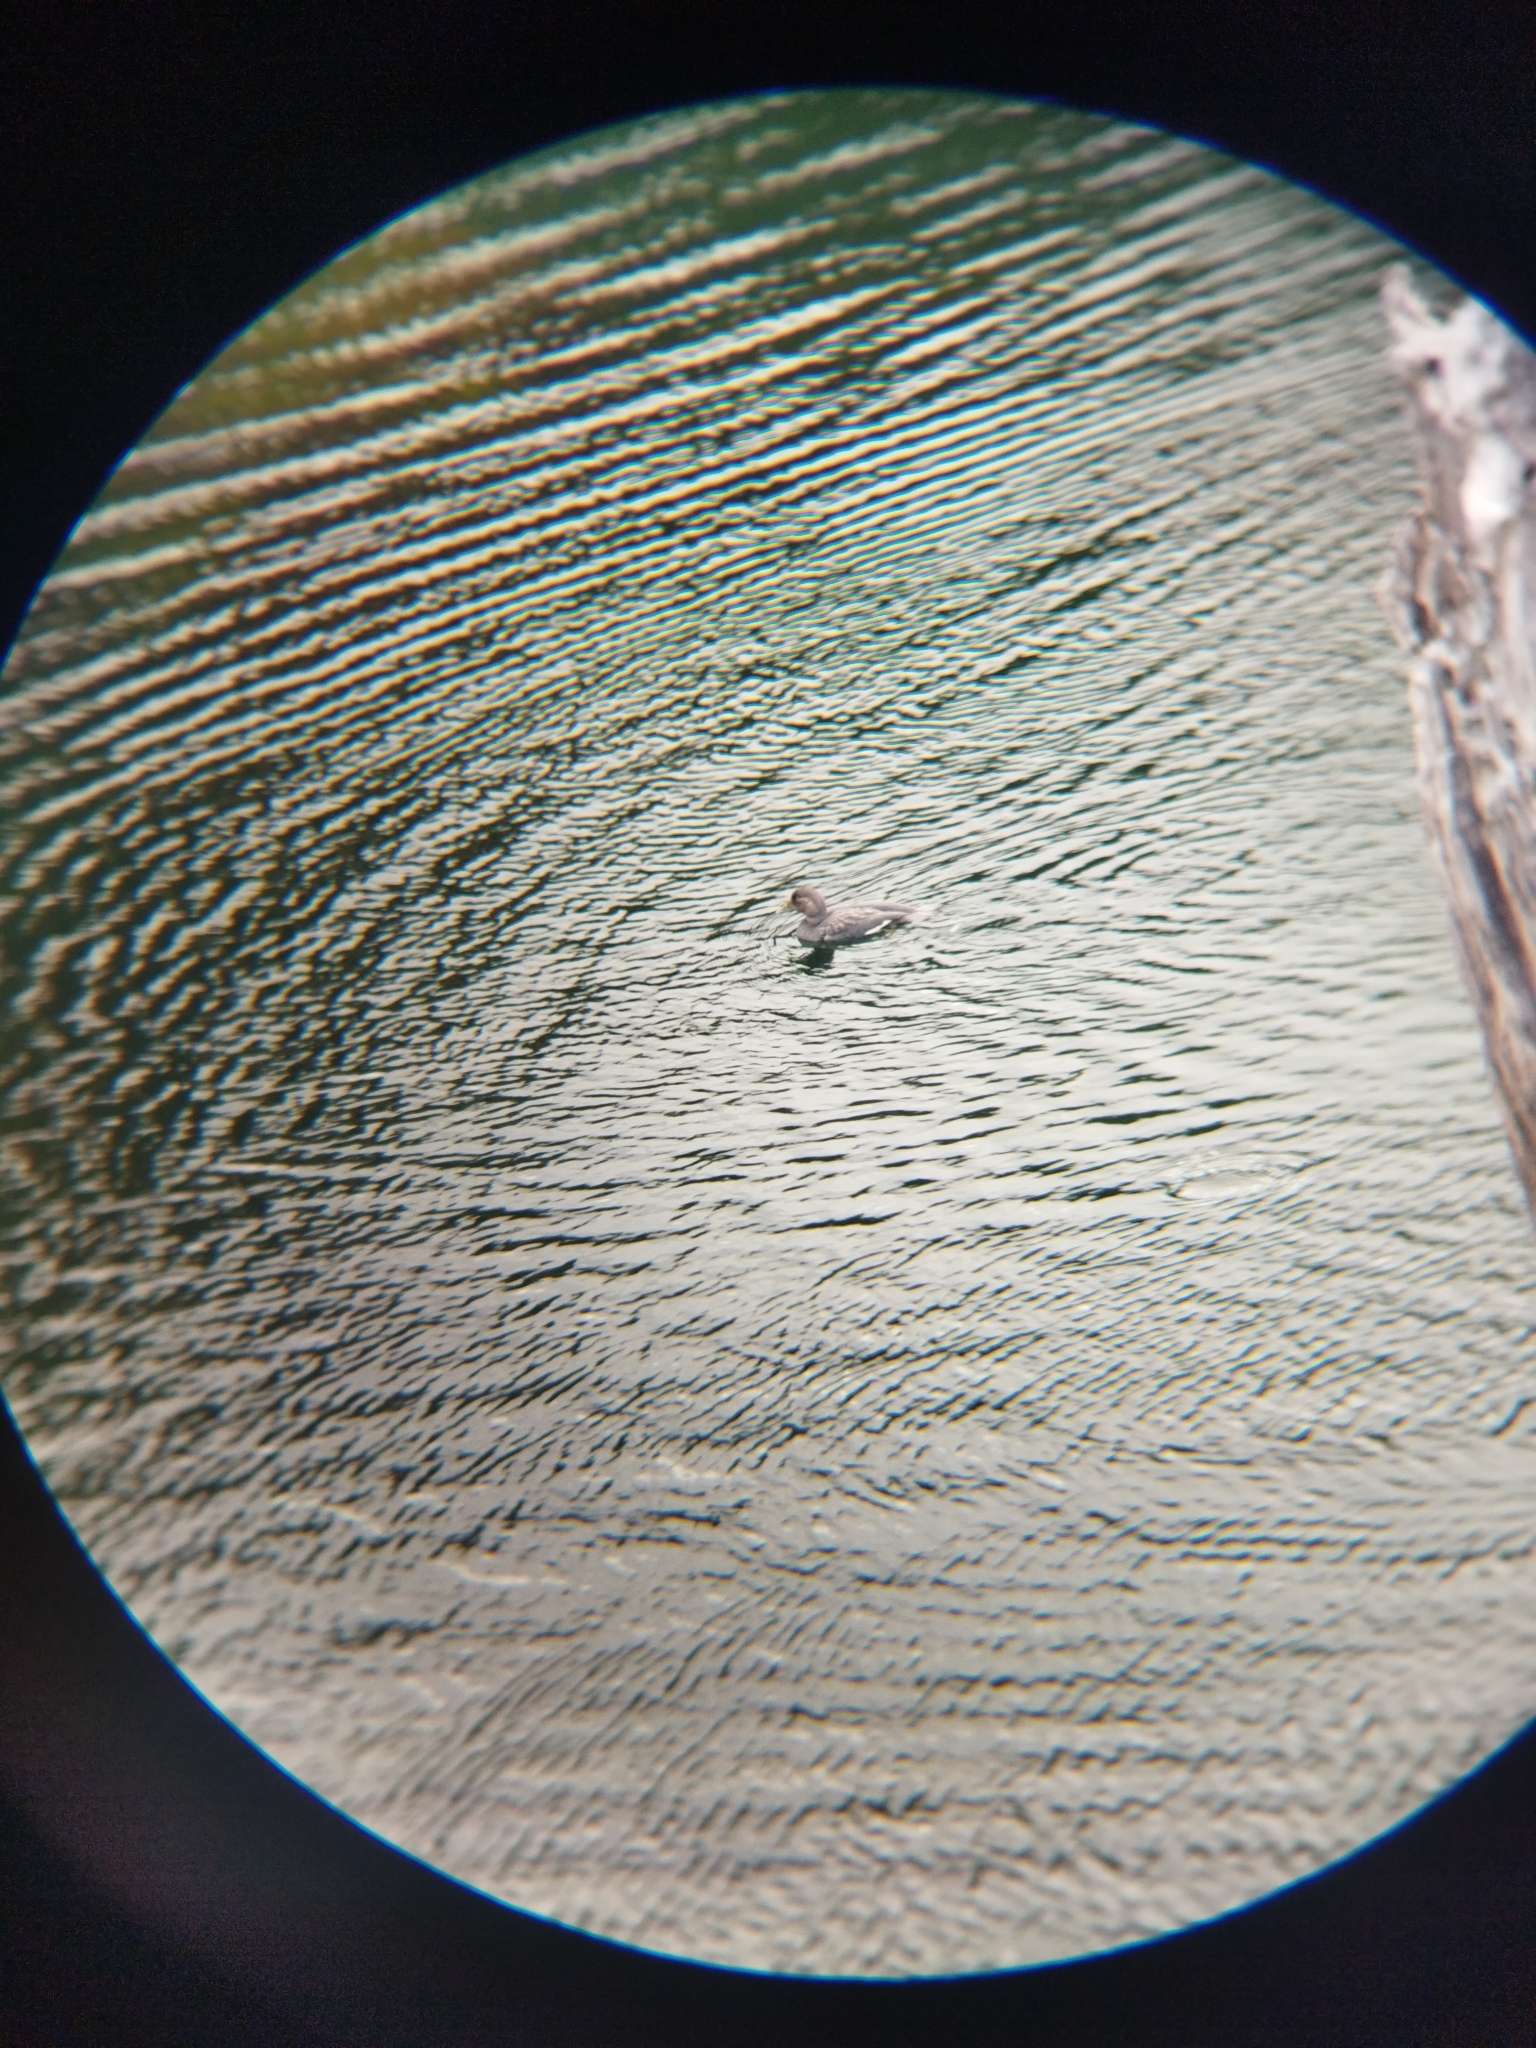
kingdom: Animalia
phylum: Chordata
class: Aves
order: Anseriformes
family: Anatidae
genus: Tachyeres
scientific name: Tachyeres patachonicus
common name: Flying steamer duck
